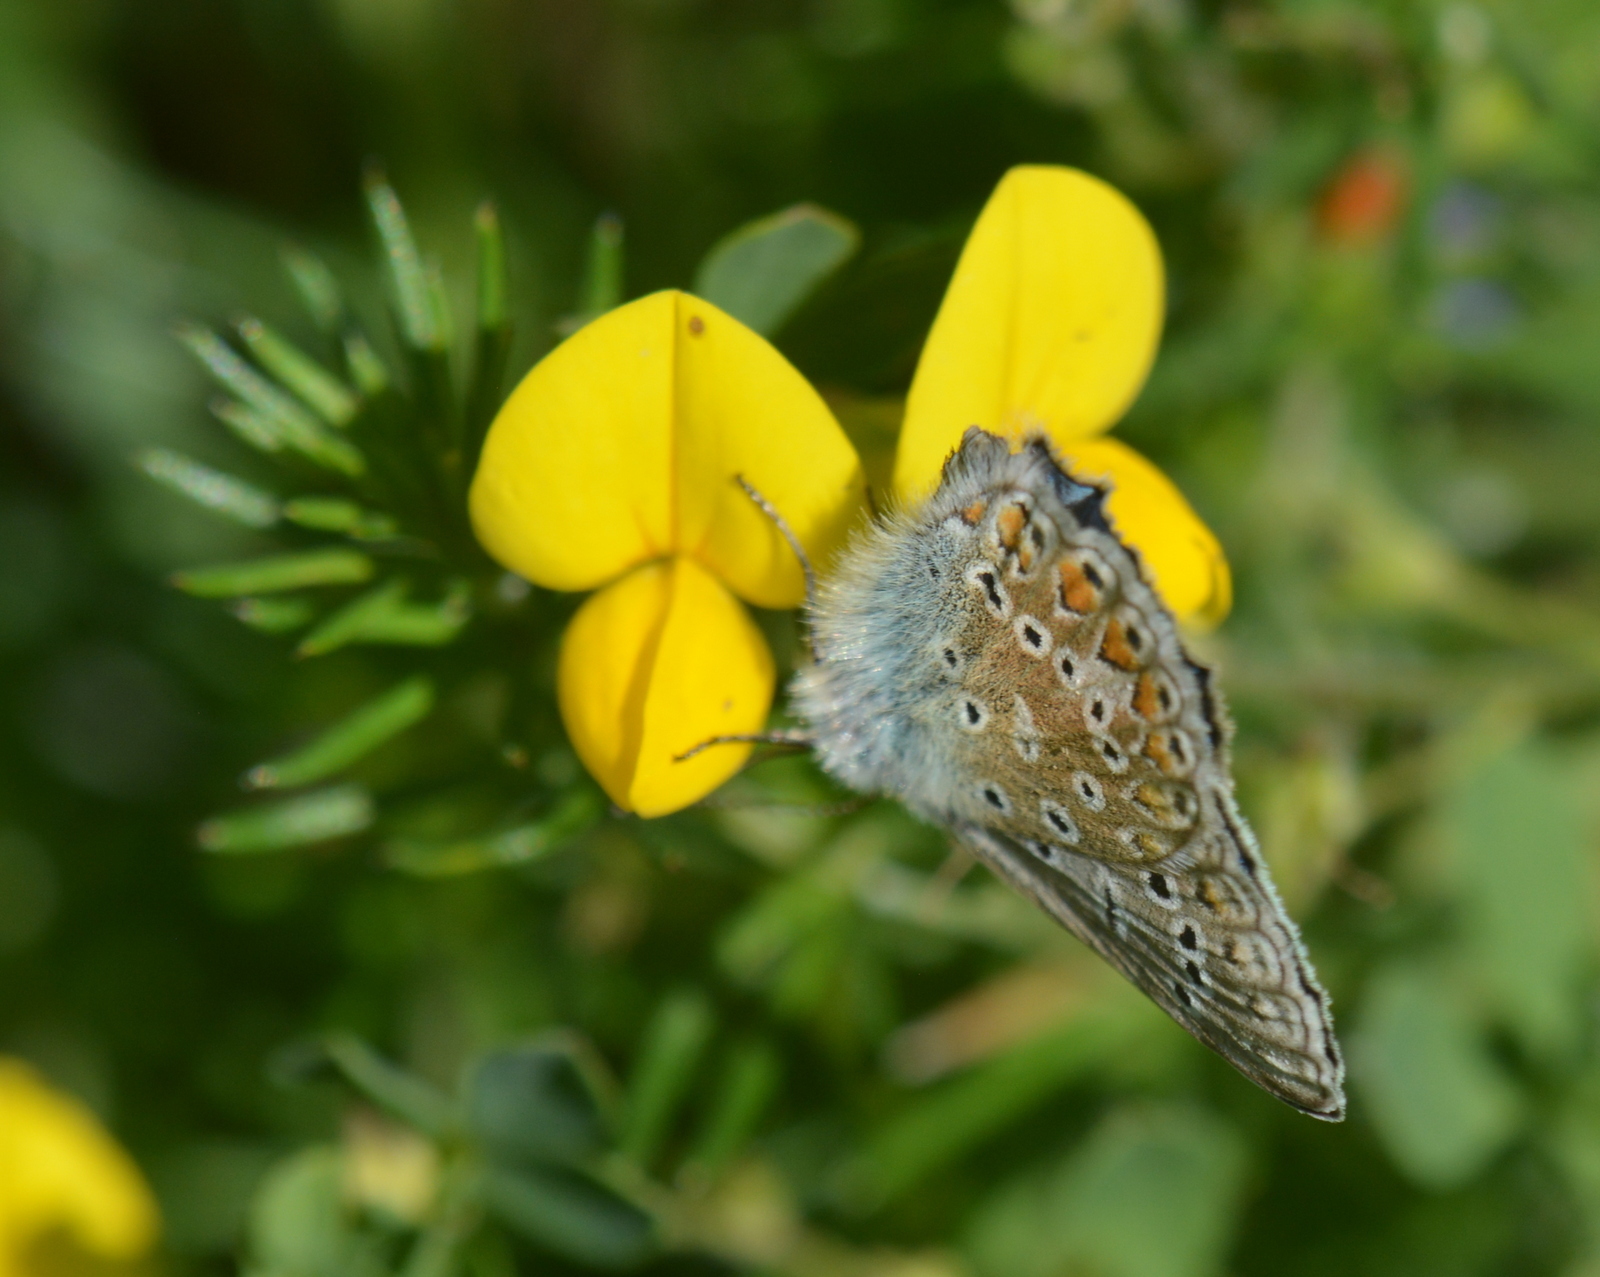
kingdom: Animalia
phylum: Arthropoda
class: Insecta
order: Lepidoptera
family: Lycaenidae
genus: Polyommatus
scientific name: Polyommatus icarus
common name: Common blue
